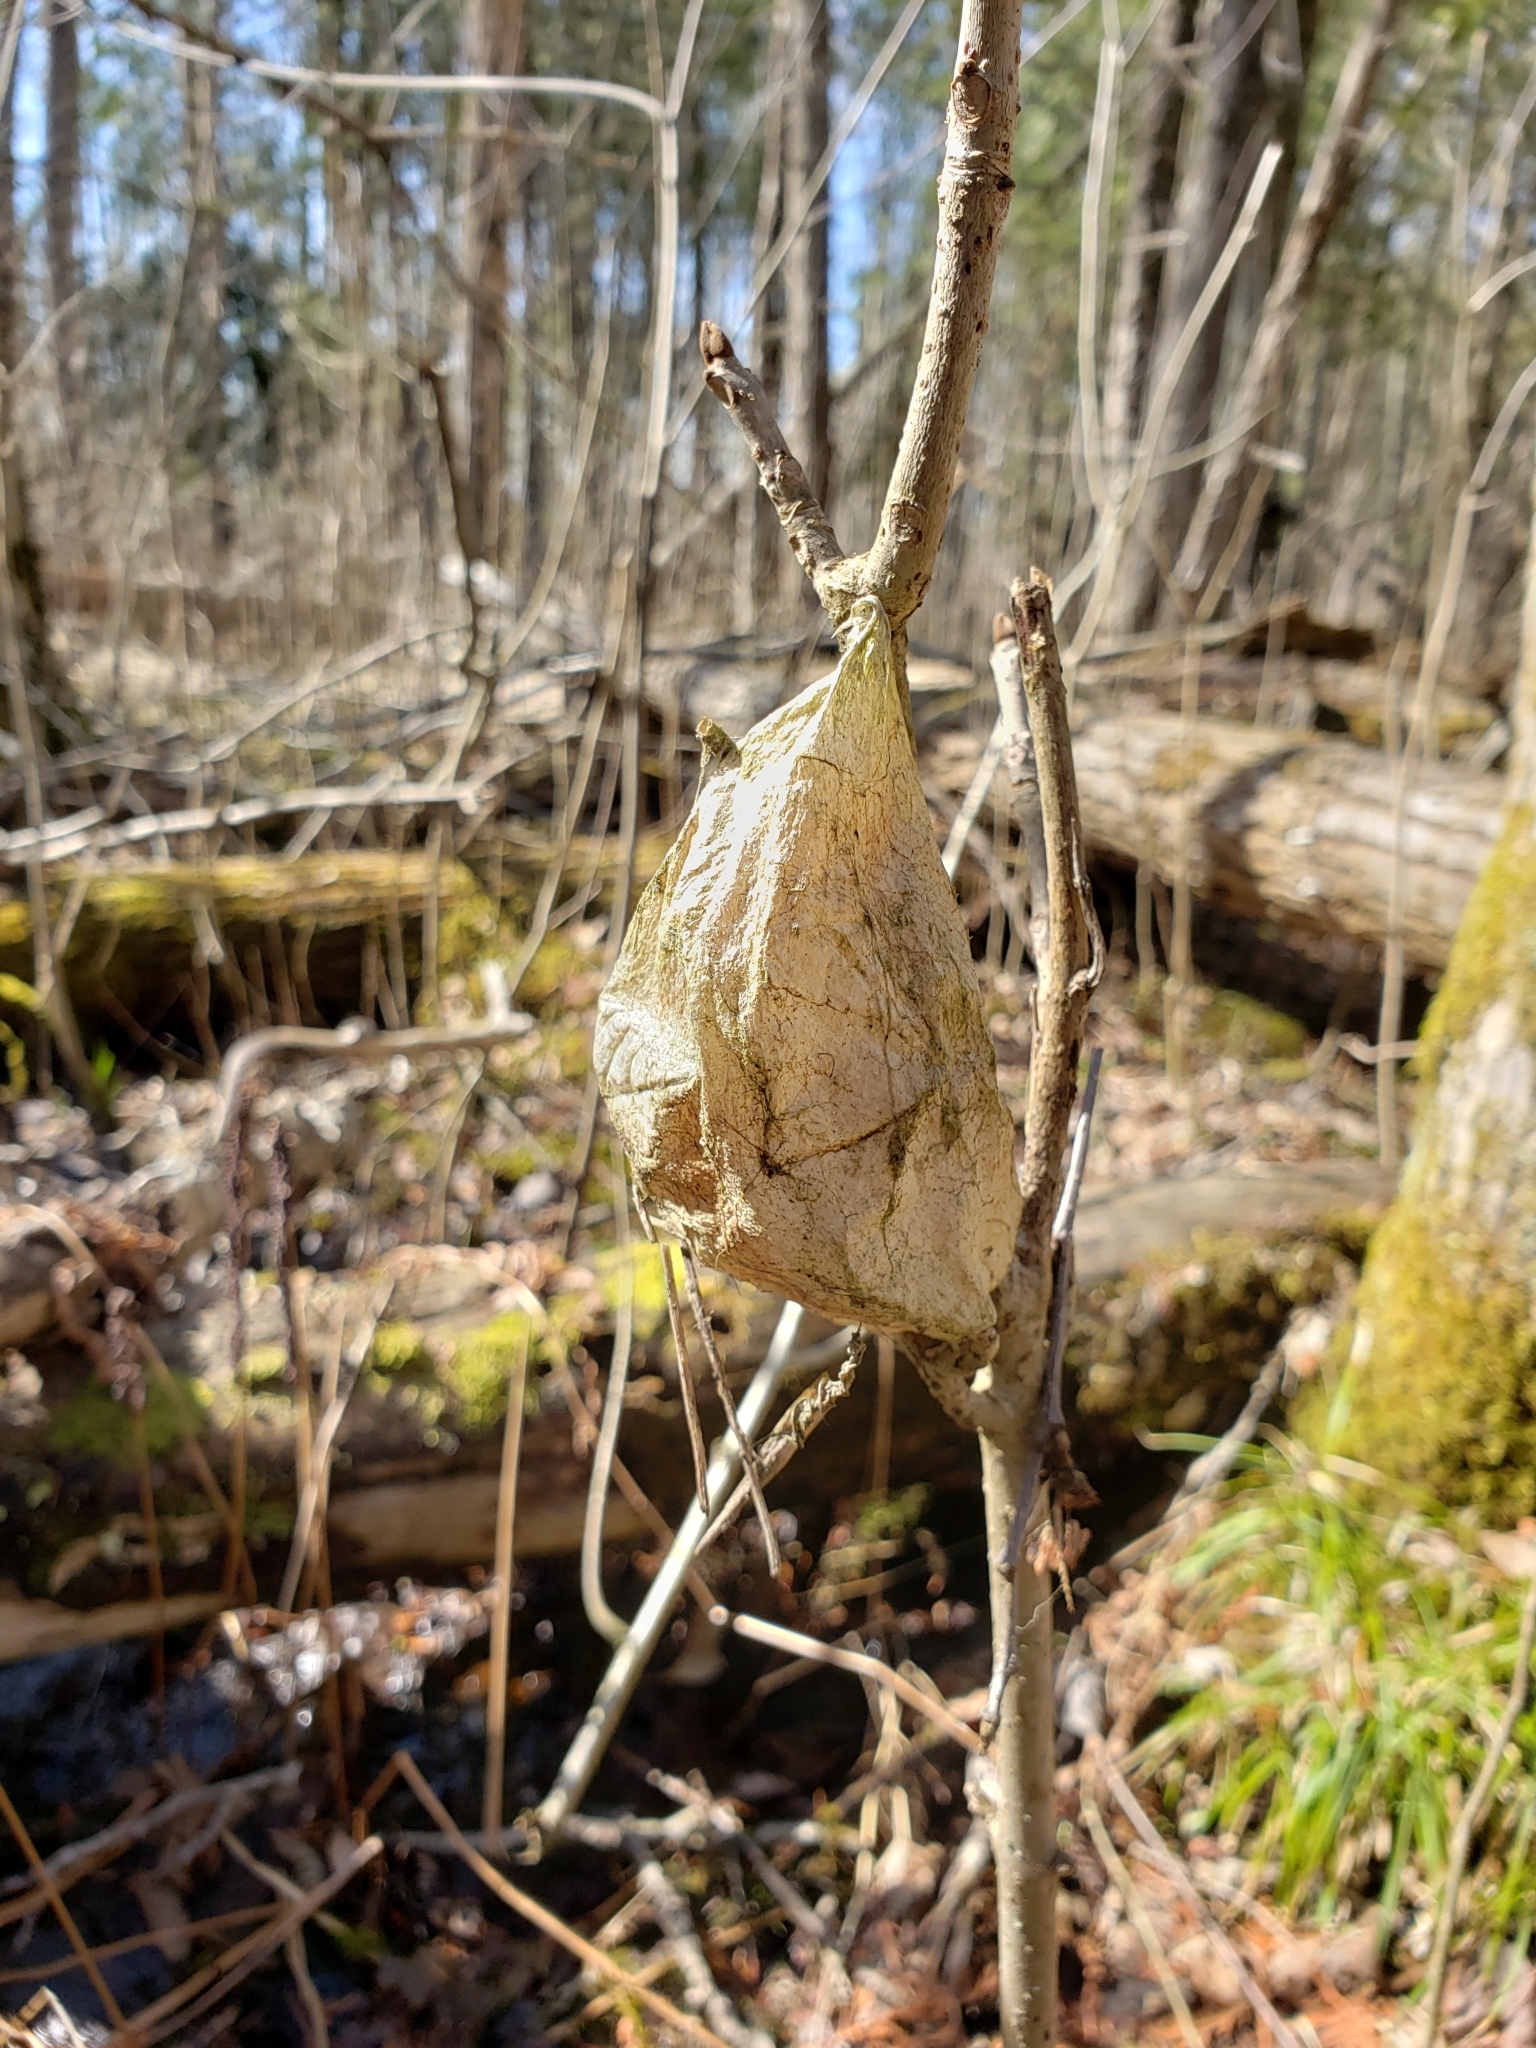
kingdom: Animalia
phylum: Arthropoda
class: Insecta
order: Lepidoptera
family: Saturniidae
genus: Hyalophora
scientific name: Hyalophora cecropia
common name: Cecropia silkmoth
